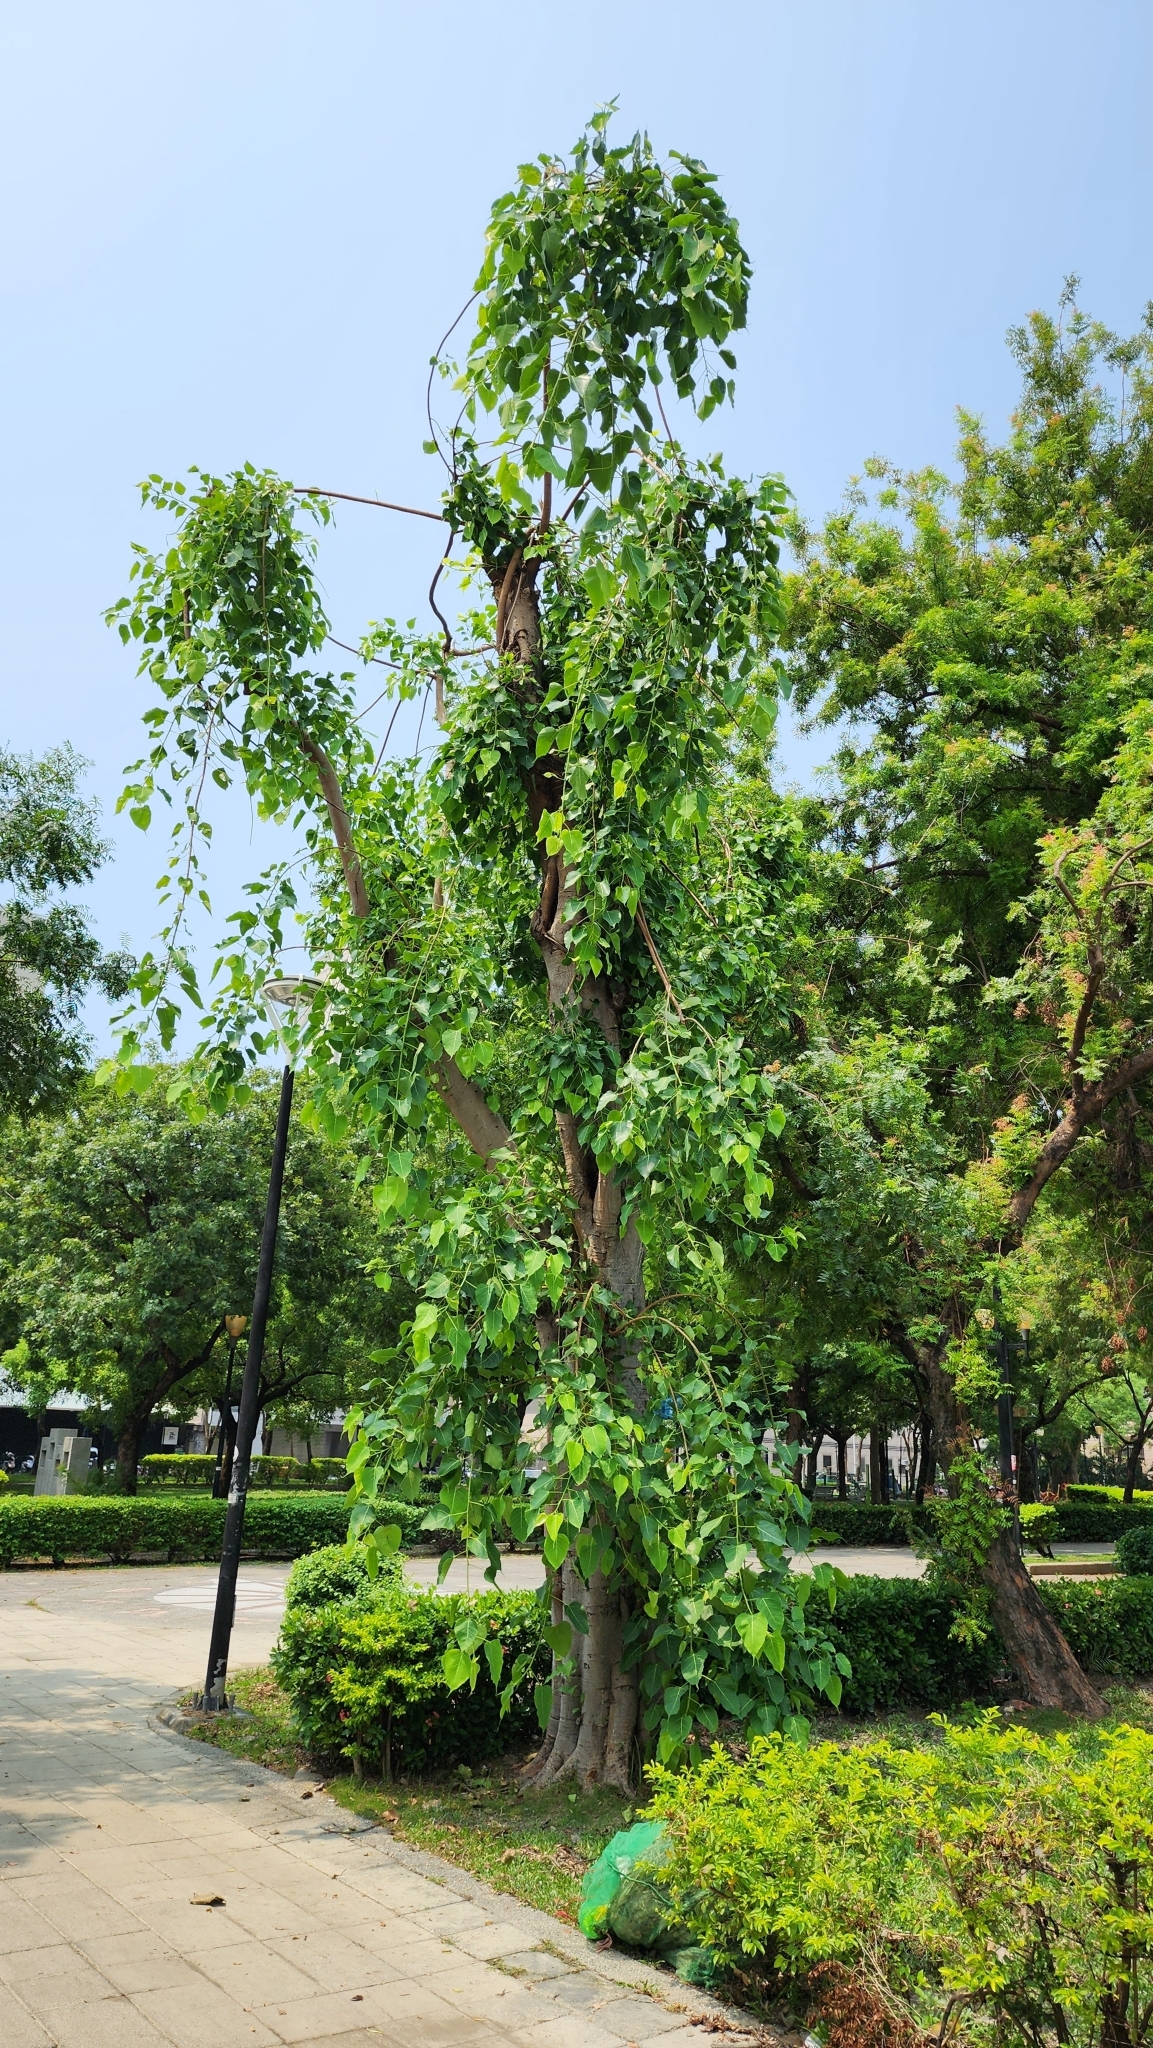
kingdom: Plantae
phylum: Tracheophyta
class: Magnoliopsida
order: Rosales
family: Moraceae
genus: Ficus
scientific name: Ficus religiosa
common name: Bodhi tree
